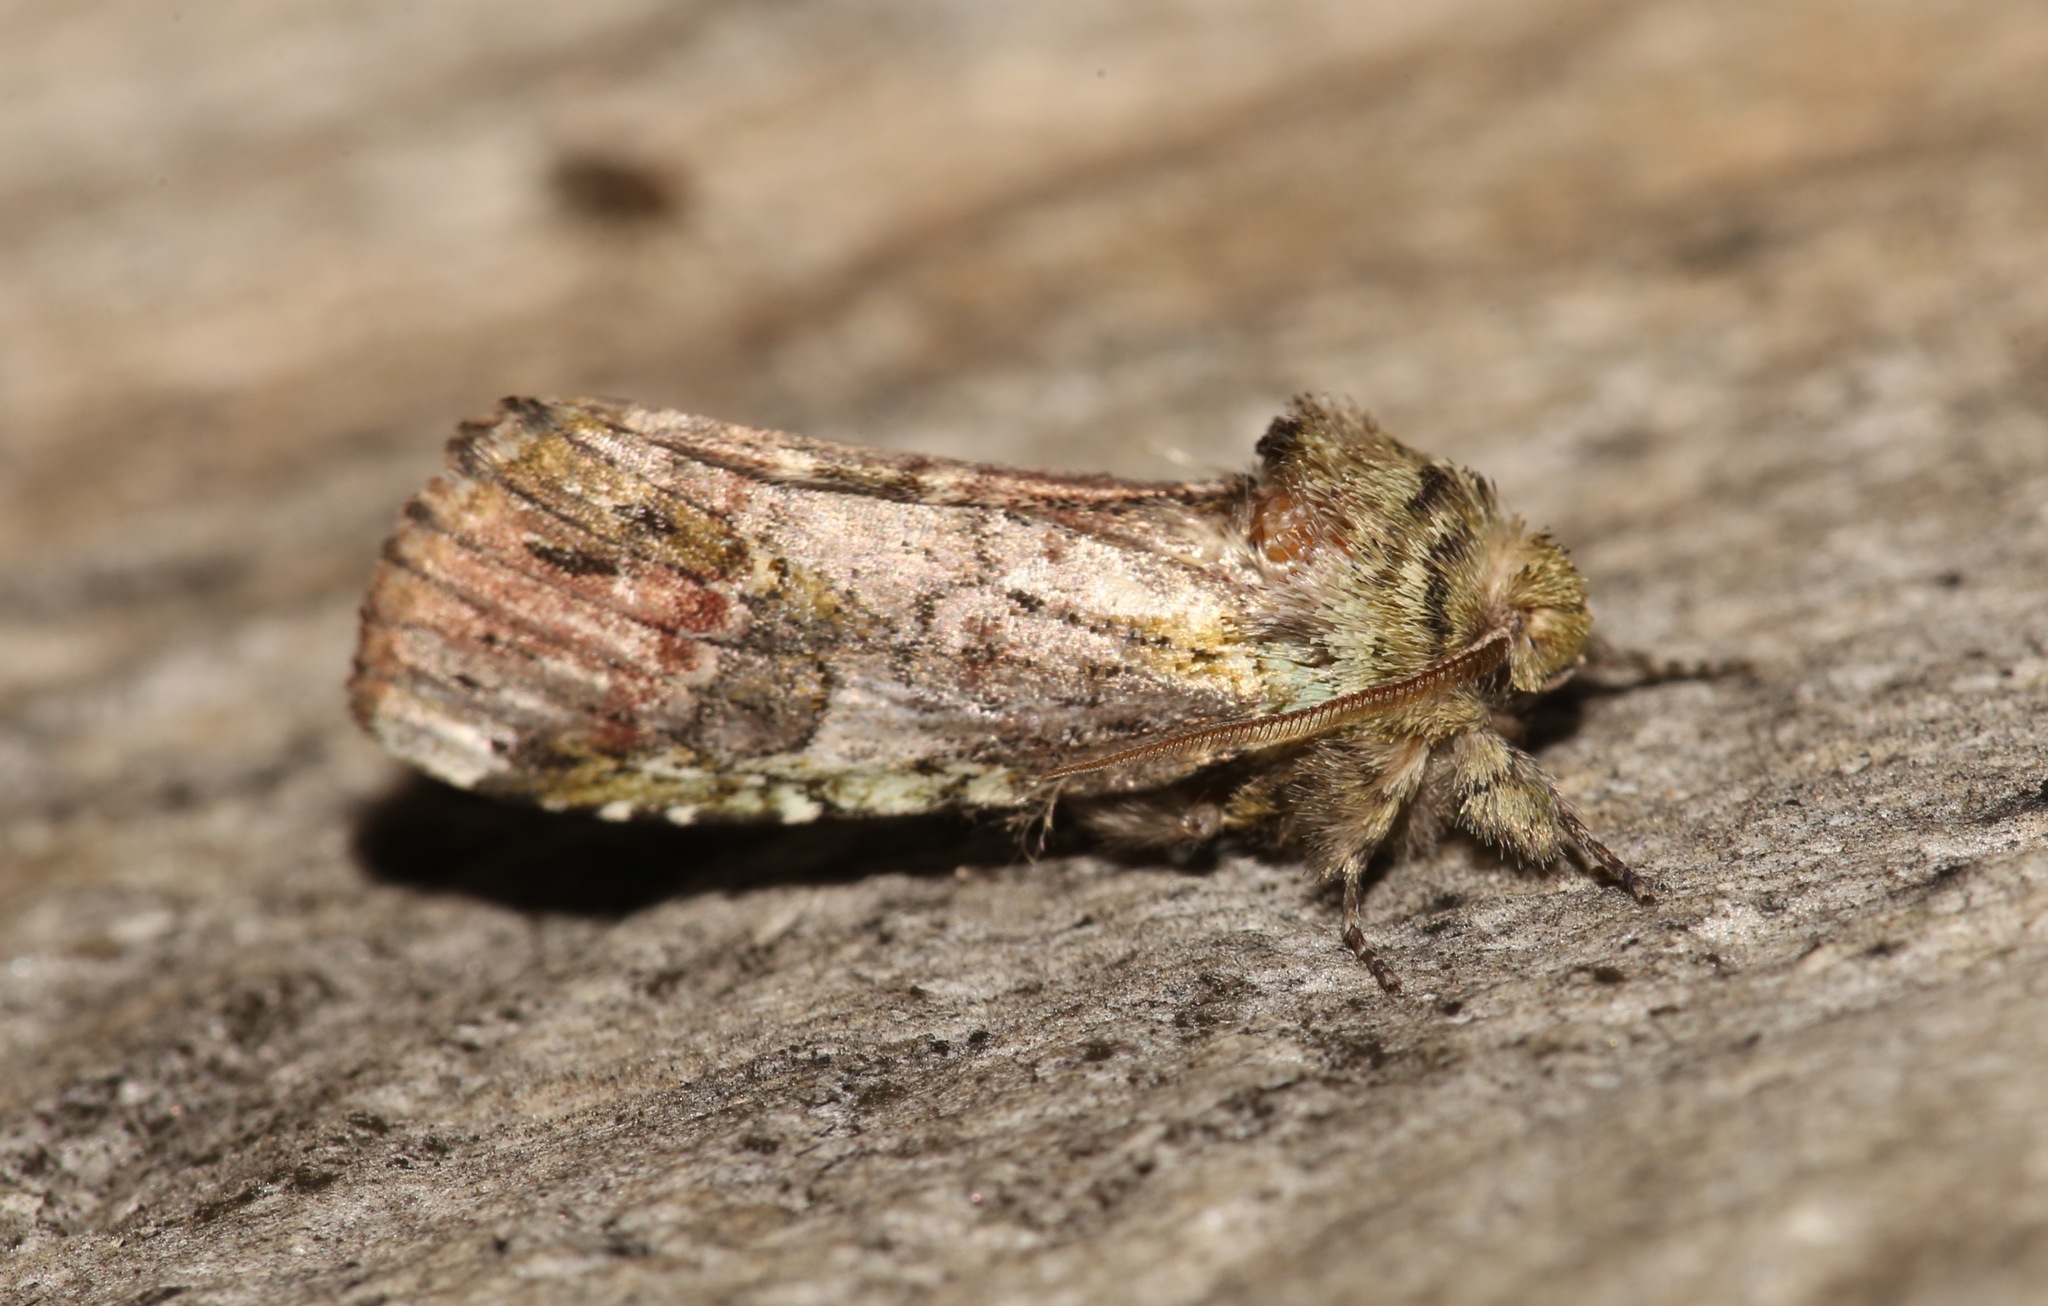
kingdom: Animalia
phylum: Arthropoda
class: Insecta
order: Lepidoptera
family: Notodontidae
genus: Schizura
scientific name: Schizura
